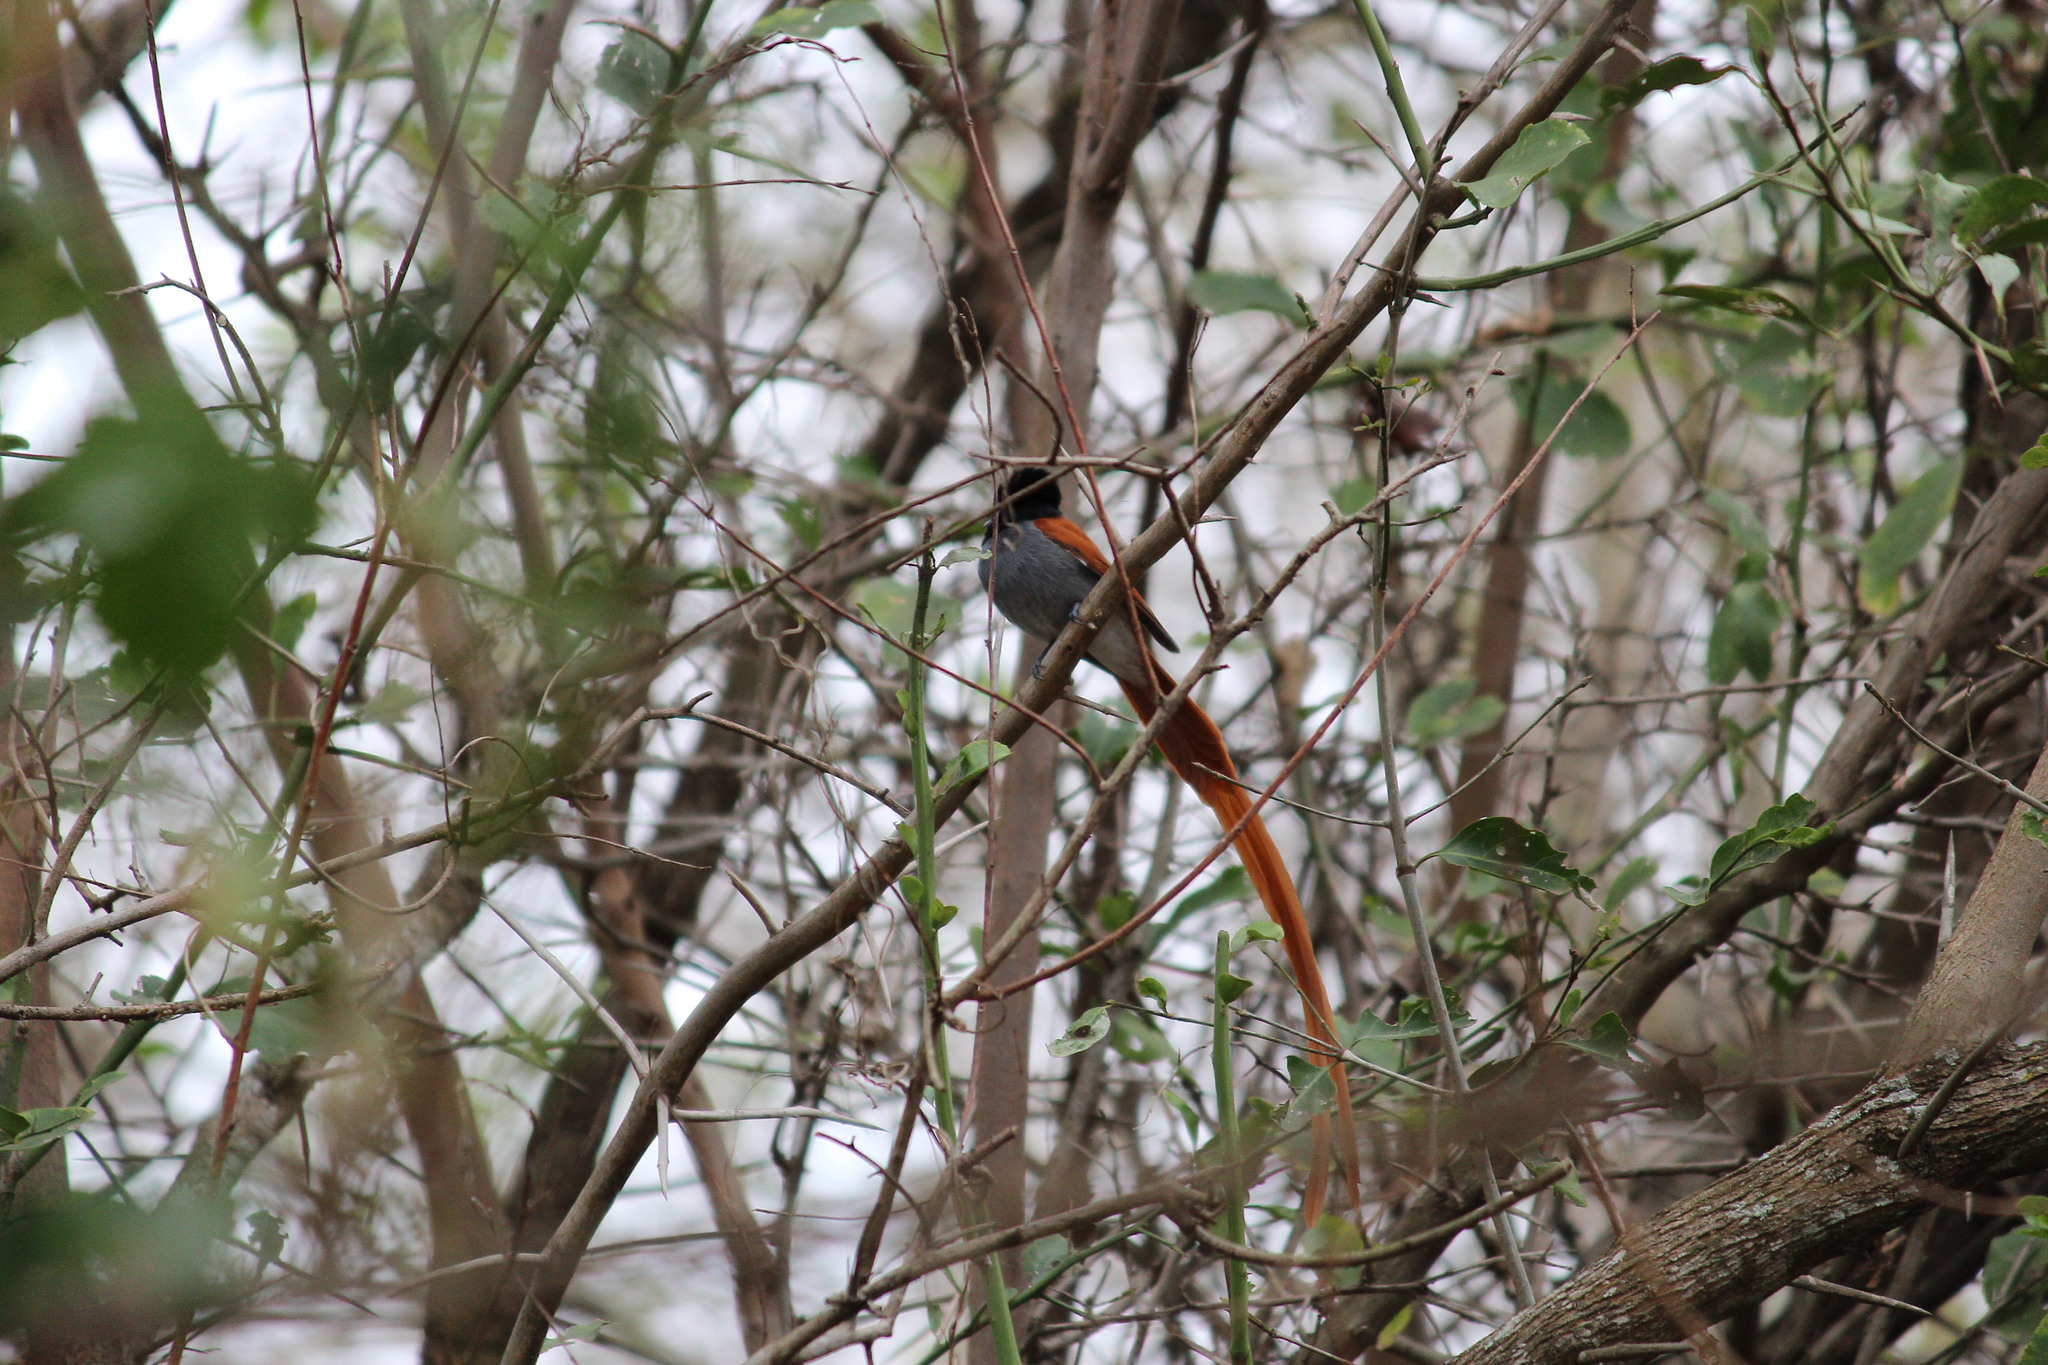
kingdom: Animalia
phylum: Chordata
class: Aves
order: Passeriformes
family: Monarchidae
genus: Terpsiphone
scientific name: Terpsiphone viridis
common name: African paradise flycatcher
